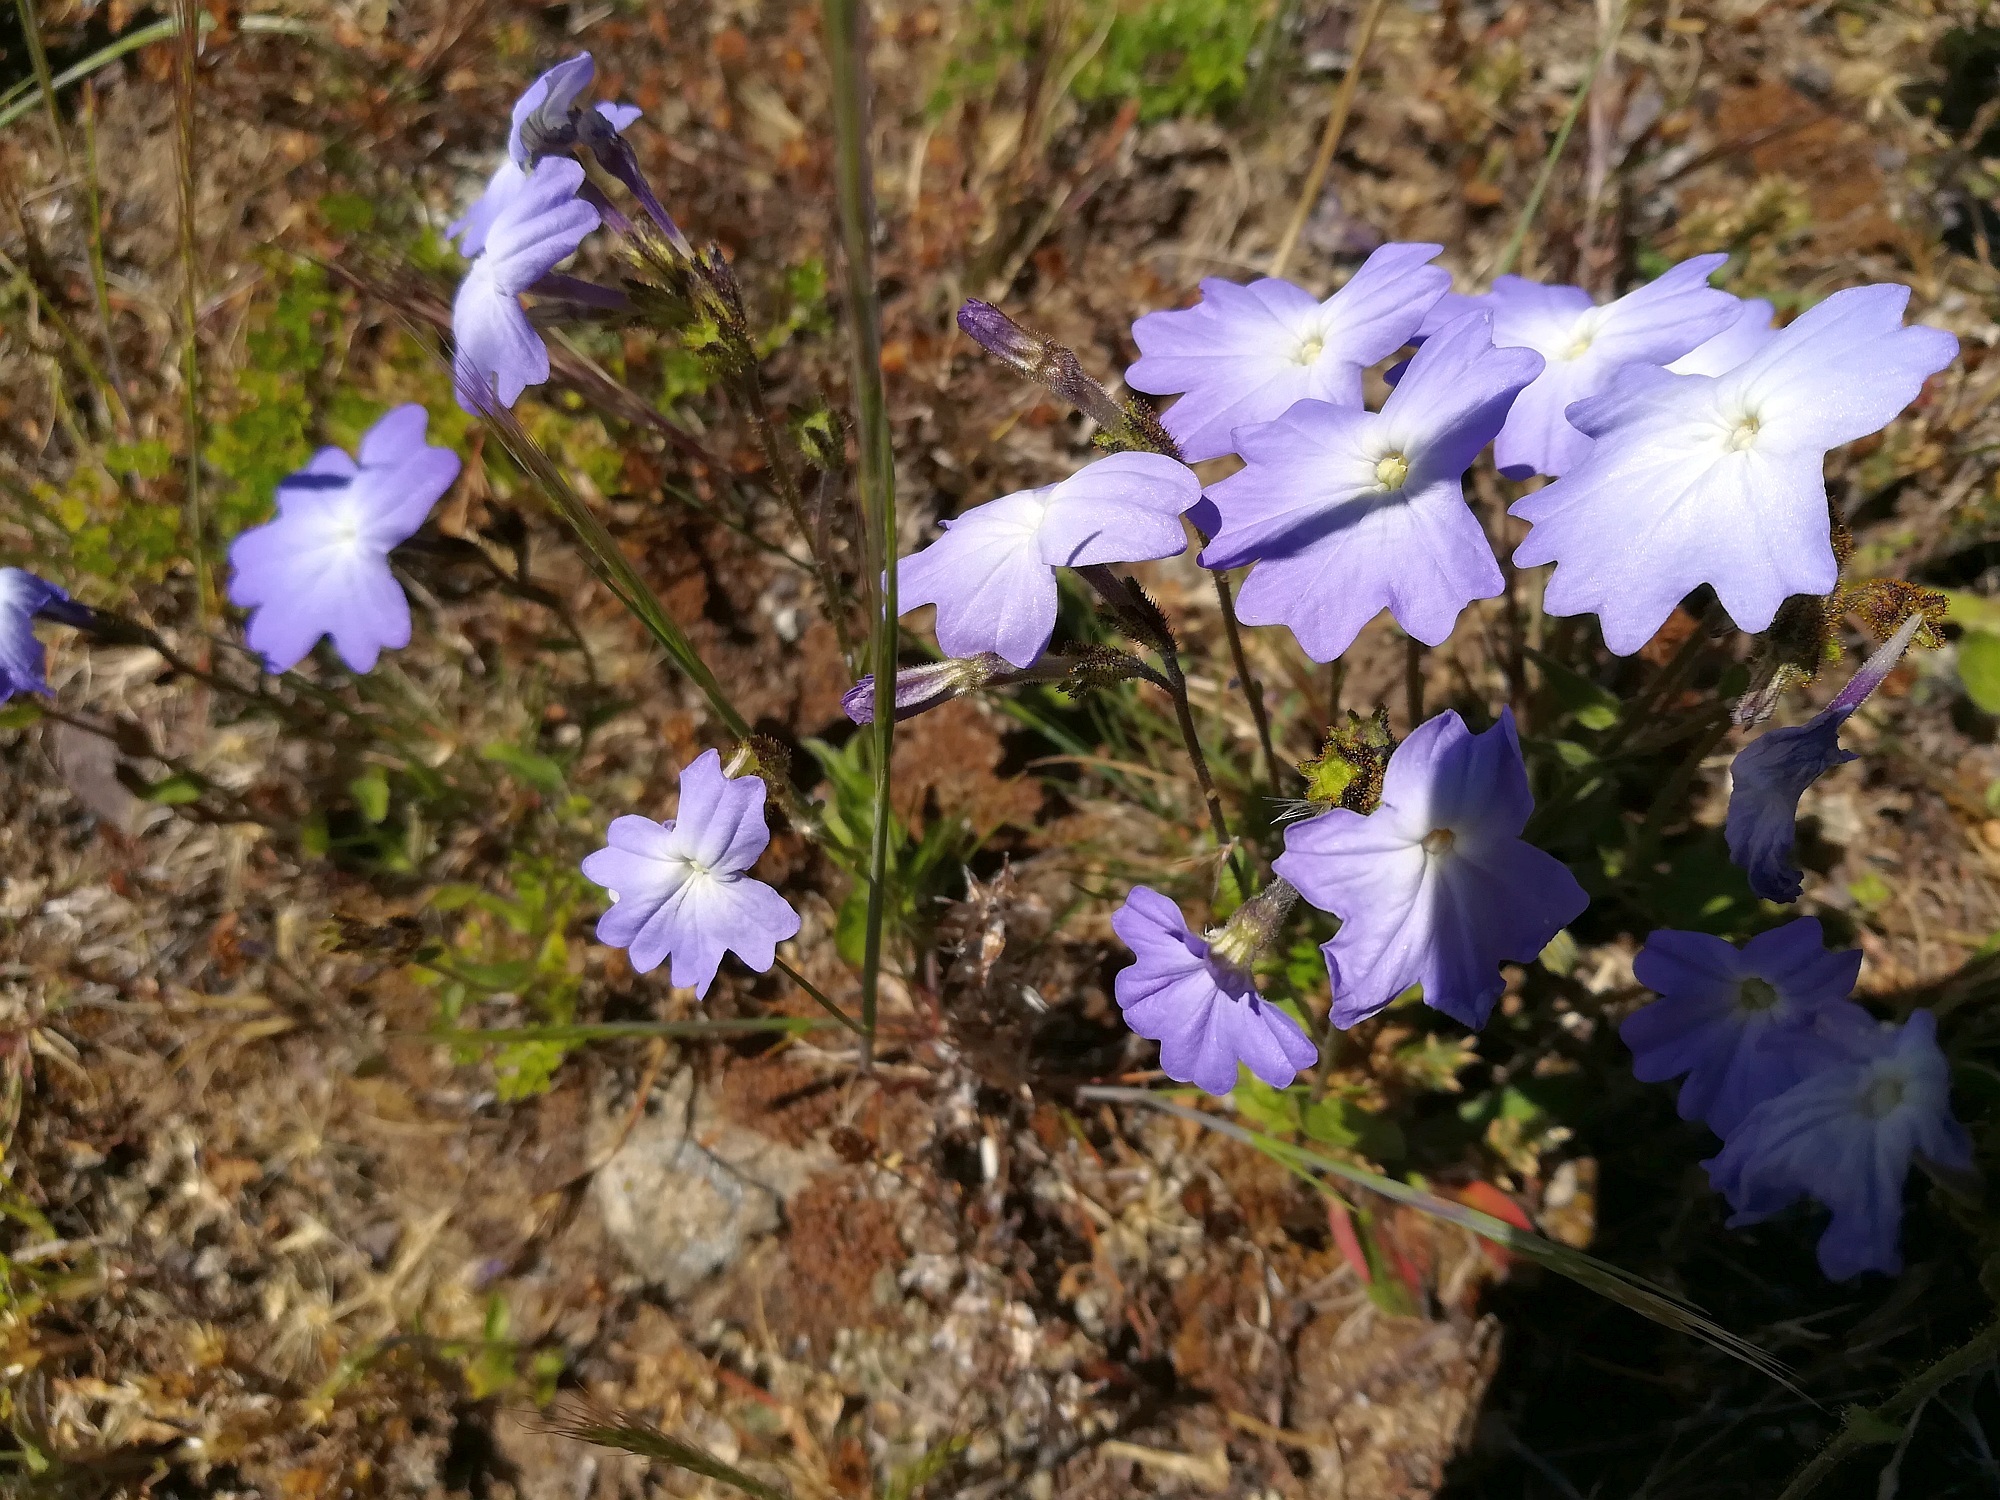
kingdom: Plantae
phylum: Tracheophyta
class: Magnoliopsida
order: Solanales
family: Solanaceae
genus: Browallia
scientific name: Browallia termophylla
